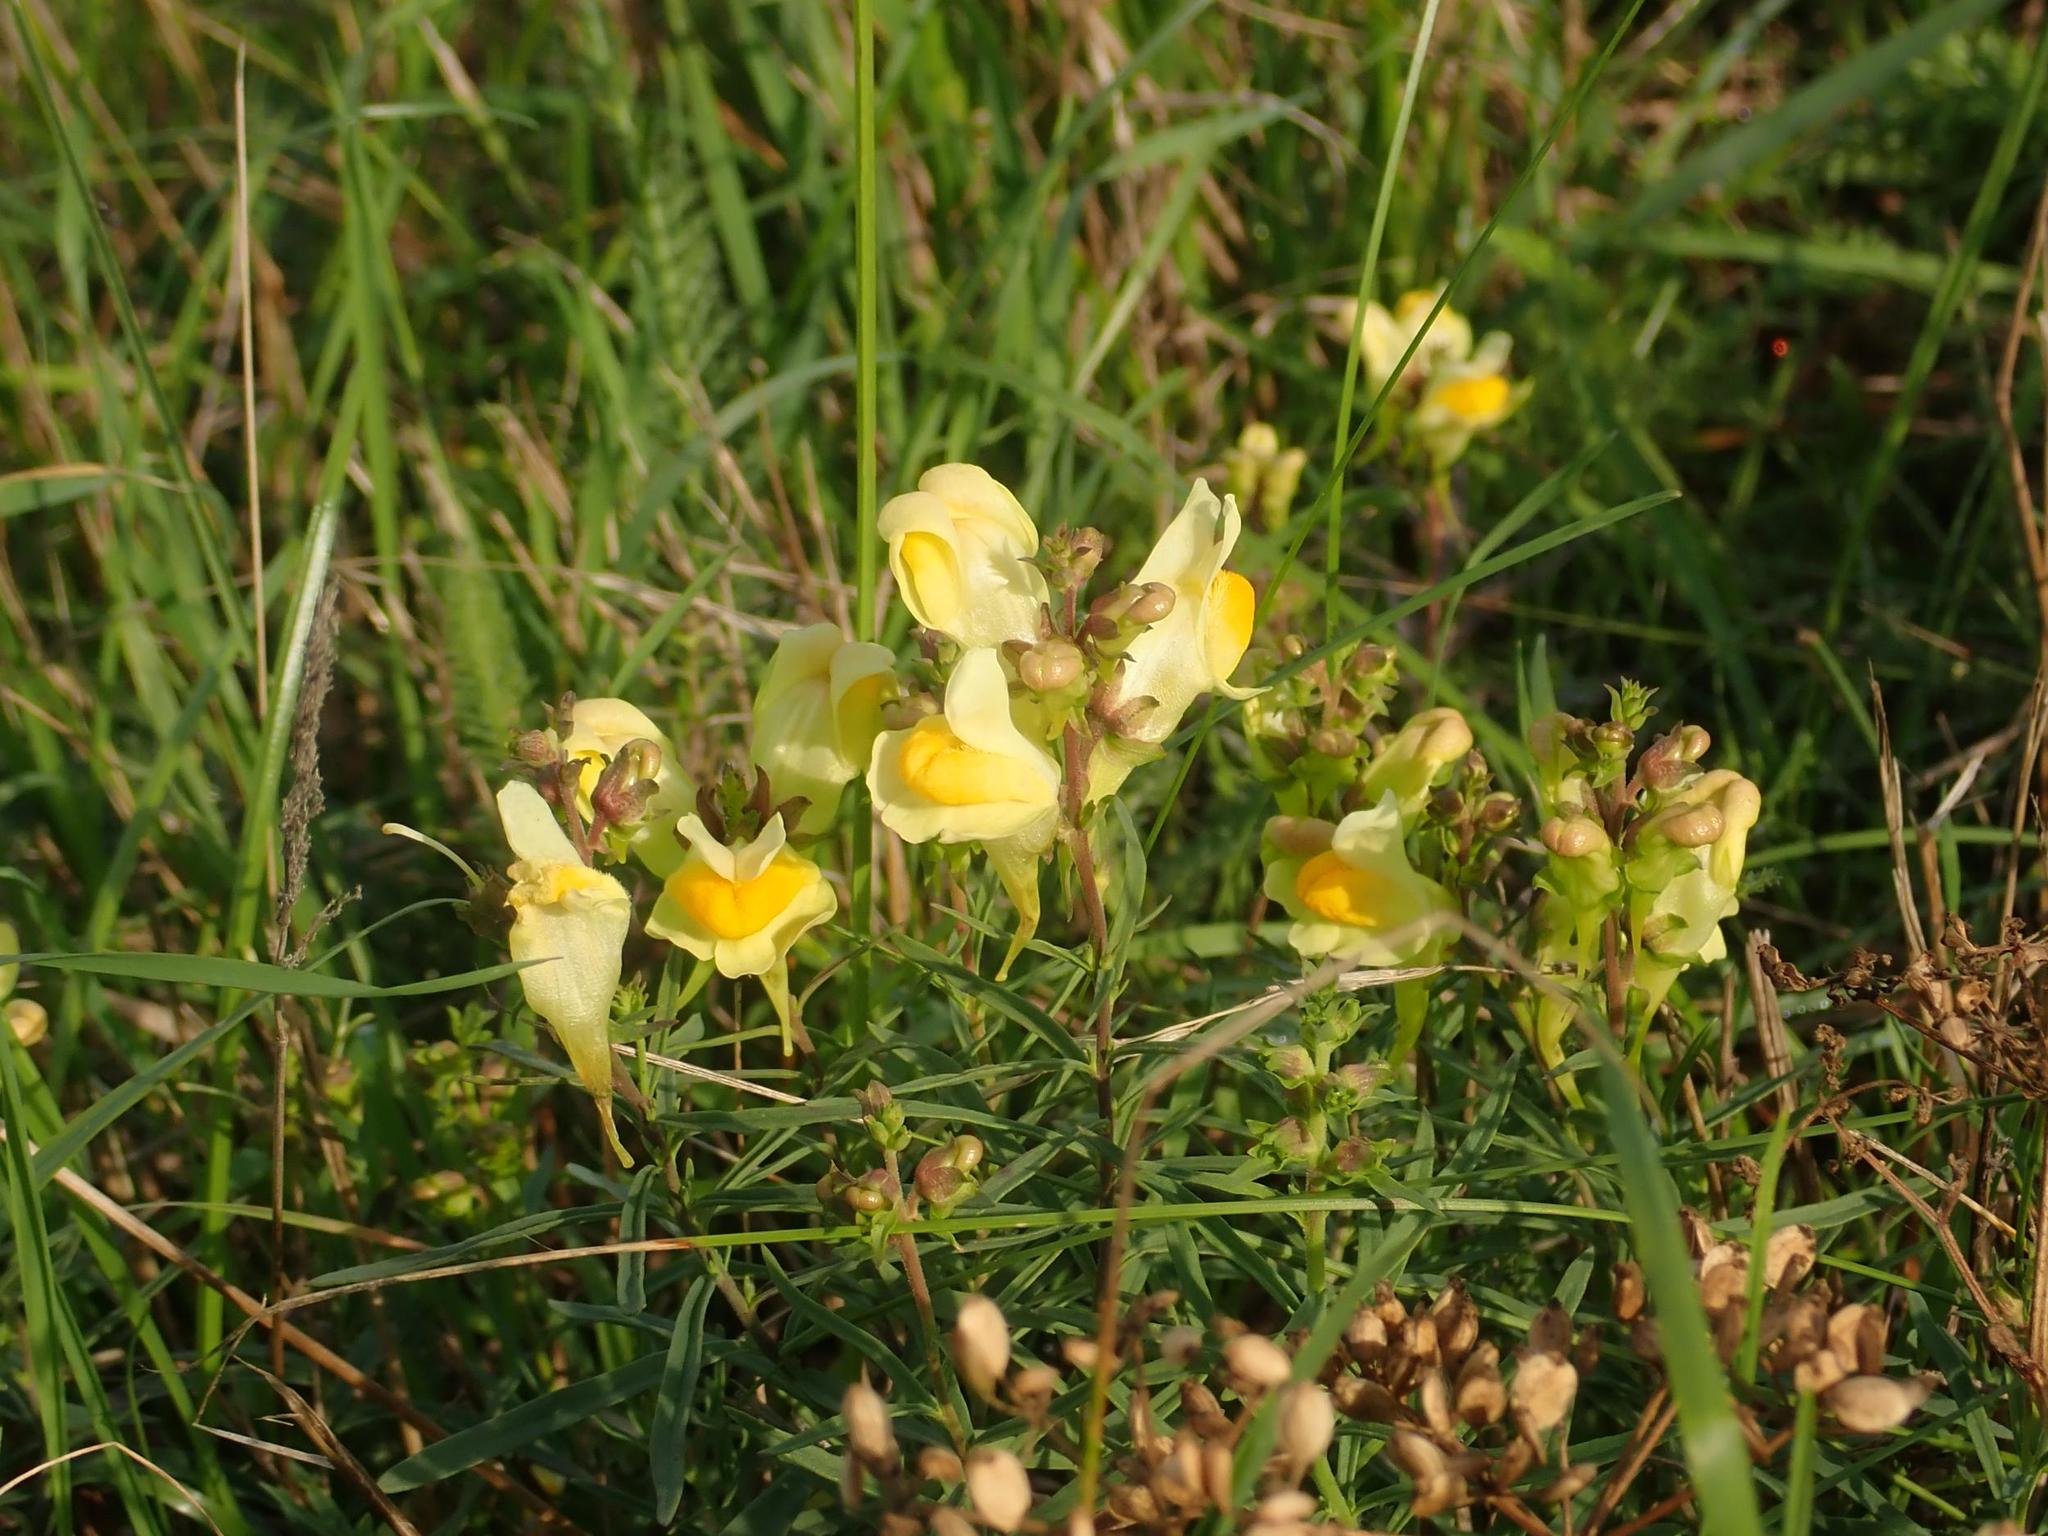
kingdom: Plantae
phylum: Tracheophyta
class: Magnoliopsida
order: Lamiales
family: Plantaginaceae
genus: Linaria
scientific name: Linaria vulgaris
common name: Butter and eggs
